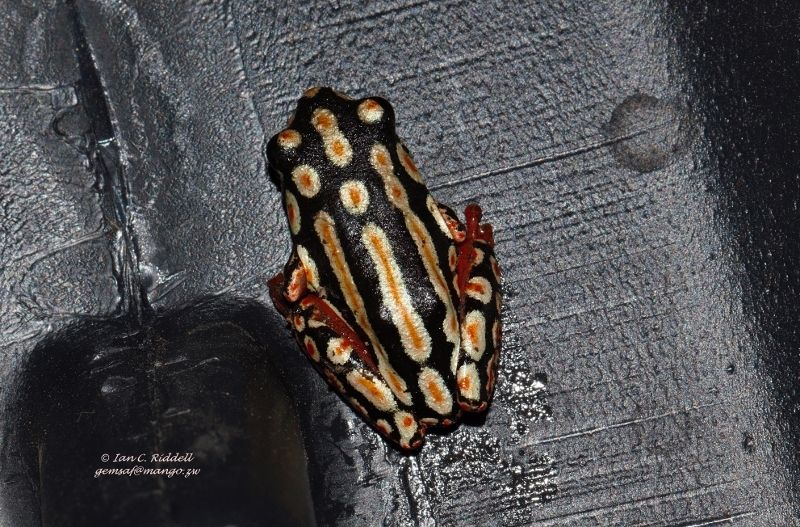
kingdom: Animalia
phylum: Chordata
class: Amphibia
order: Anura
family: Hyperoliidae
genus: Hyperolius
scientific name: Hyperolius marmoratus
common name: Painted reed frog
